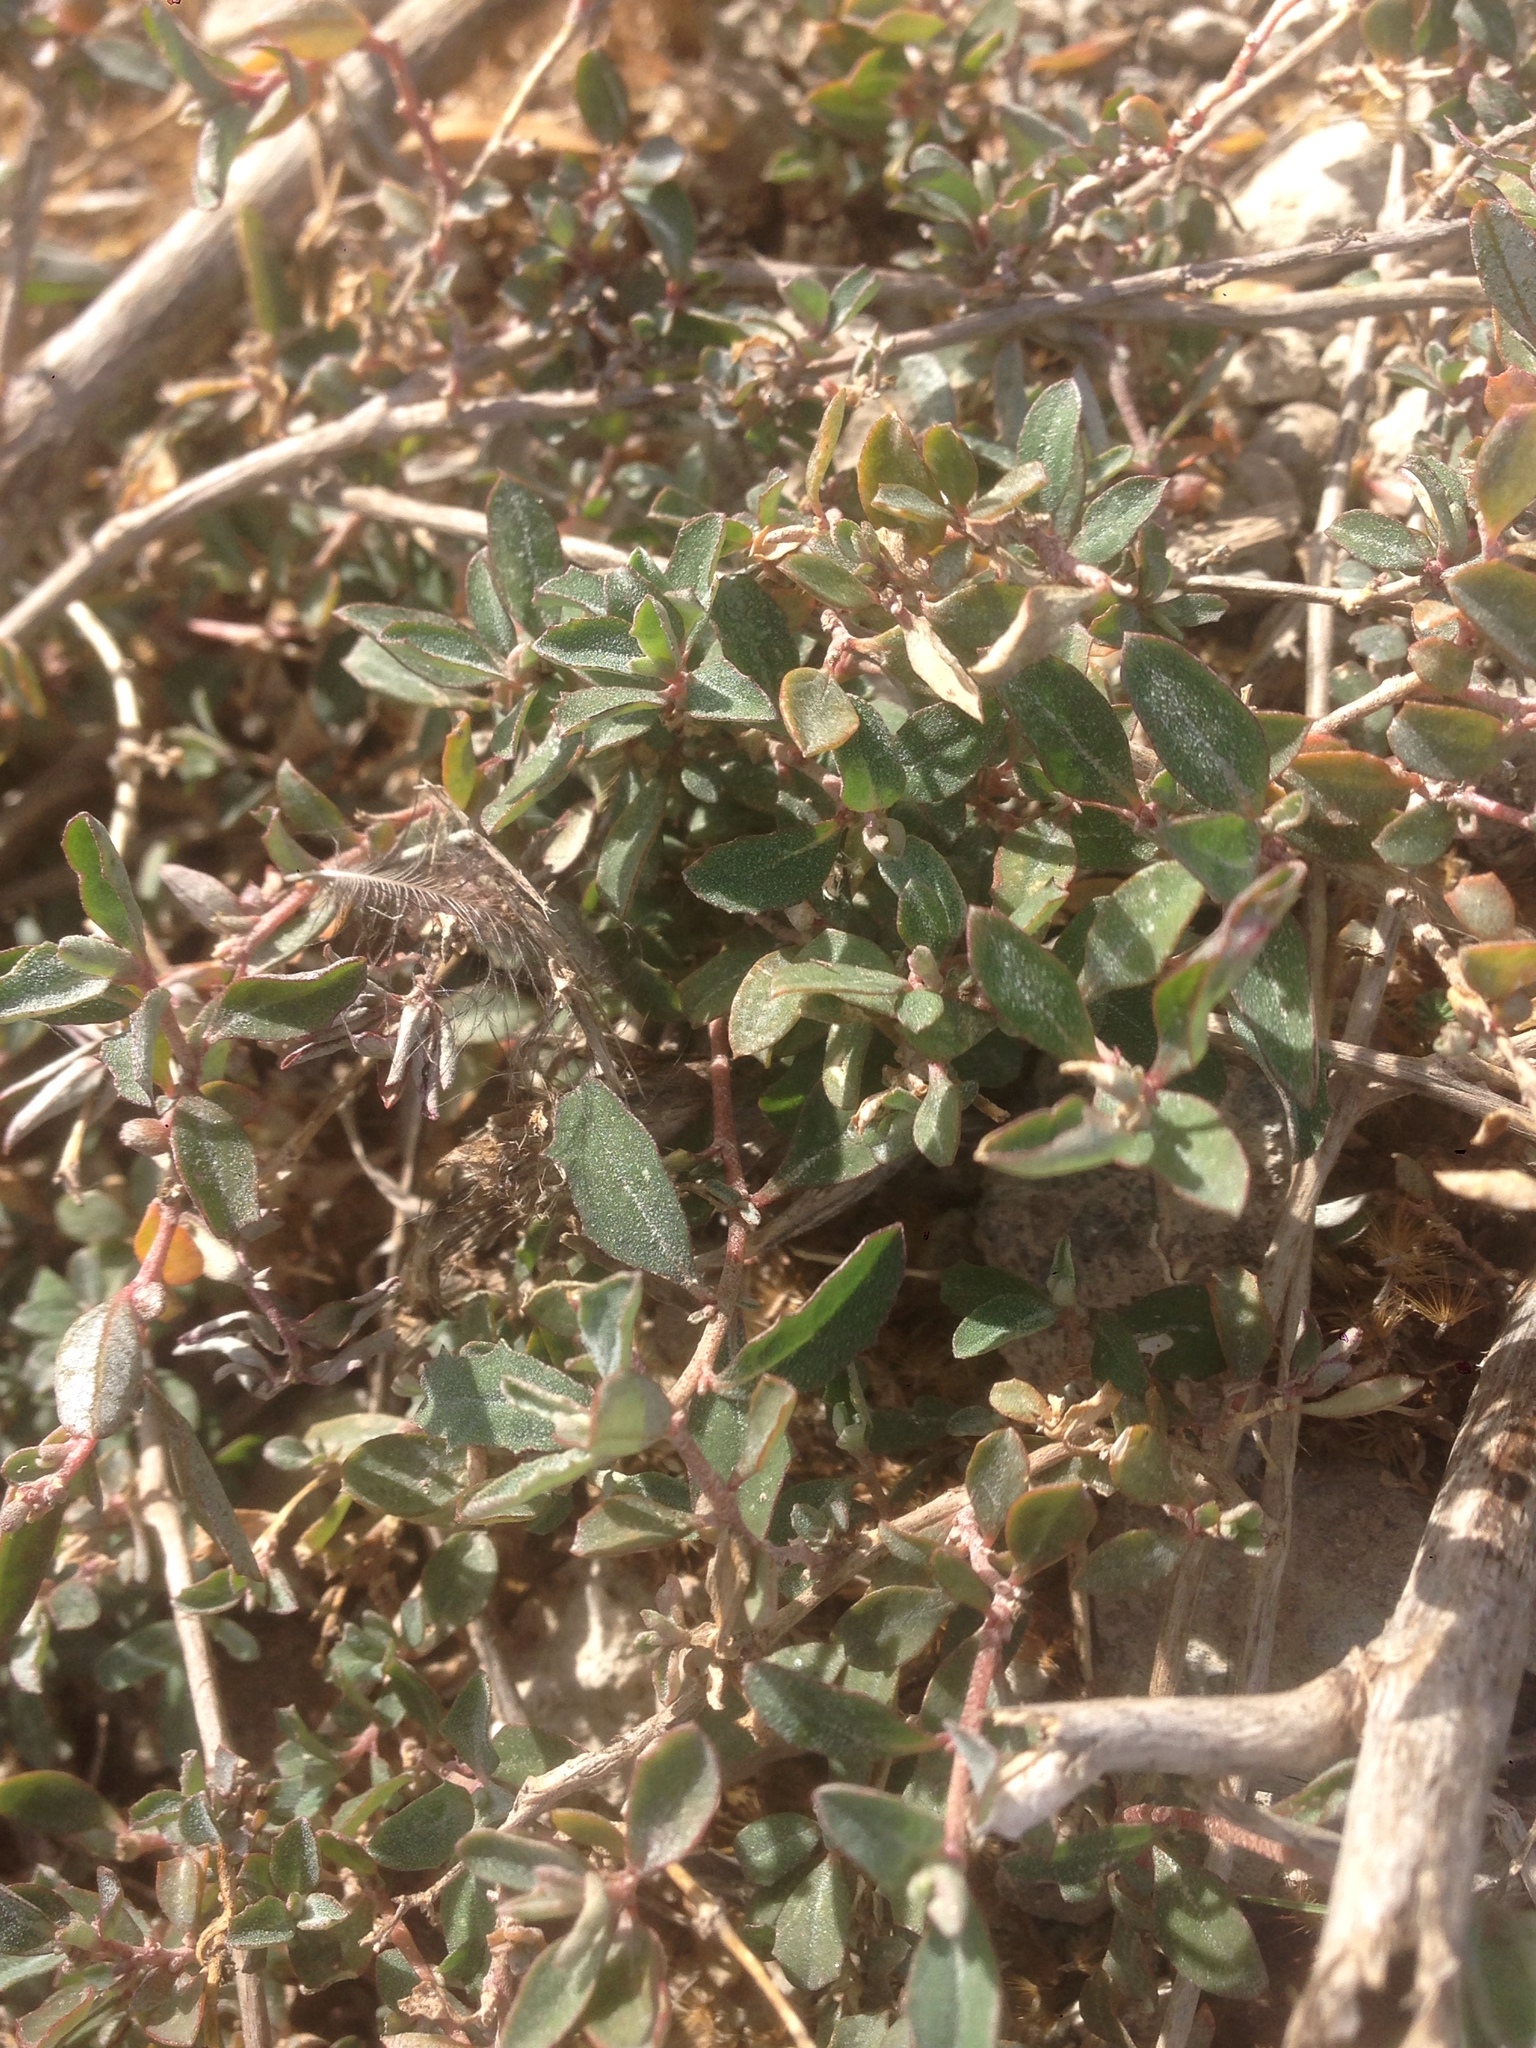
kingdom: Plantae
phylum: Tracheophyta
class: Magnoliopsida
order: Caryophyllales
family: Amaranthaceae
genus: Atriplex
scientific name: Atriplex semibaccata
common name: Australian saltbush
